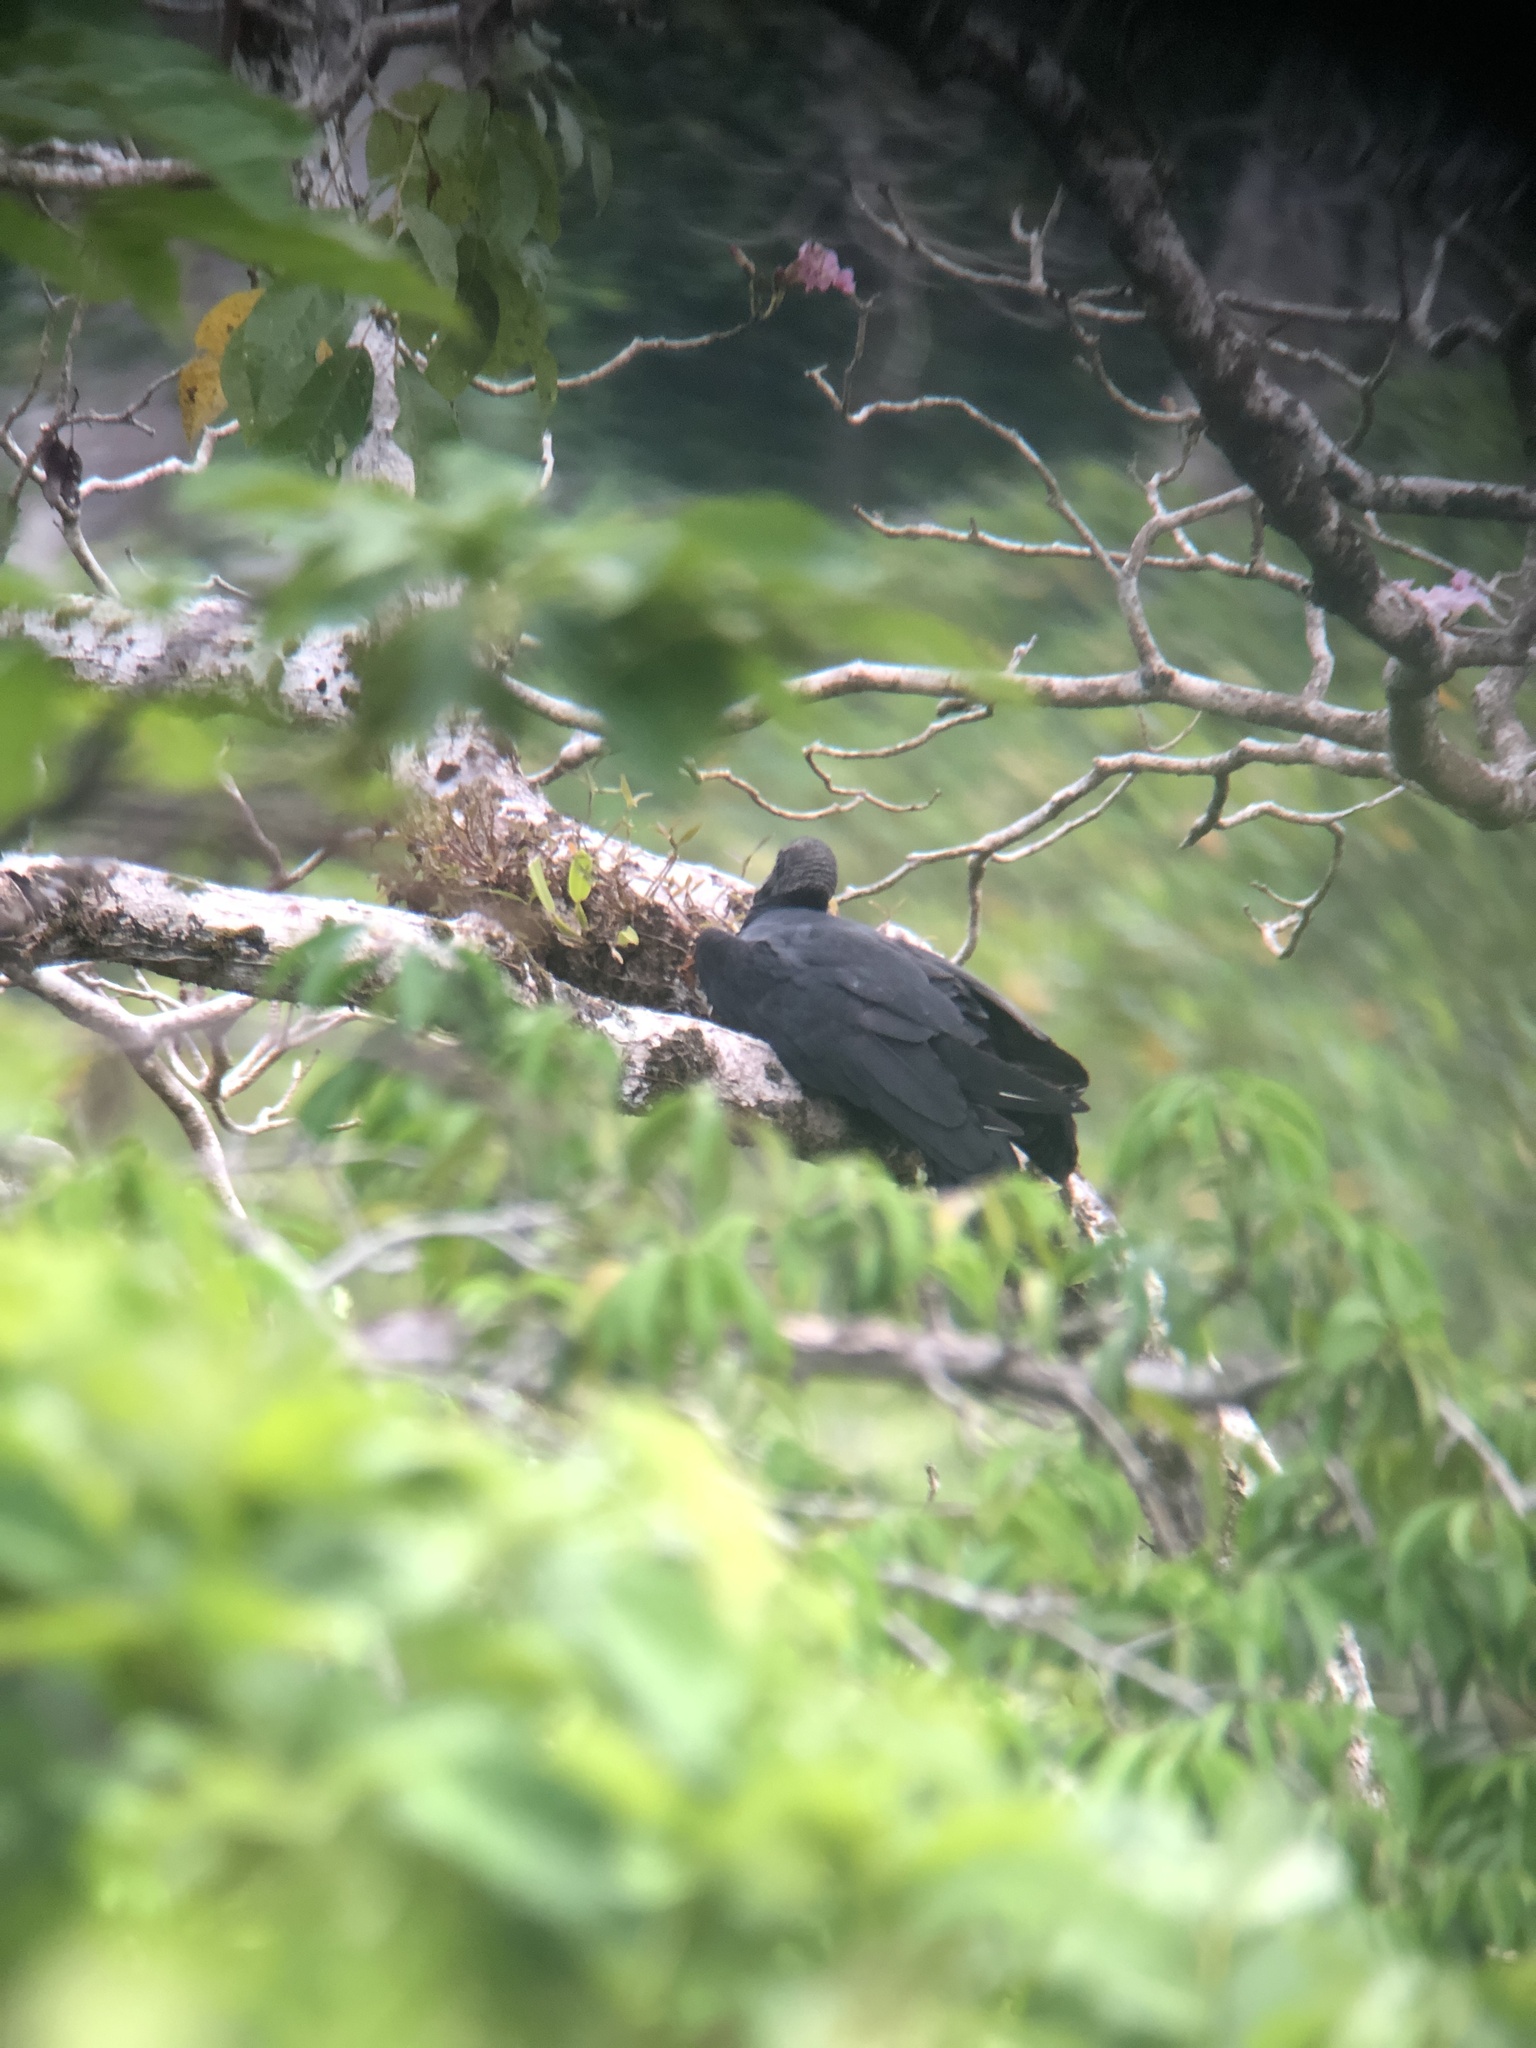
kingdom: Animalia
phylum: Chordata
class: Aves
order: Accipitriformes
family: Cathartidae
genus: Coragyps
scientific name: Coragyps atratus
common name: Black vulture
